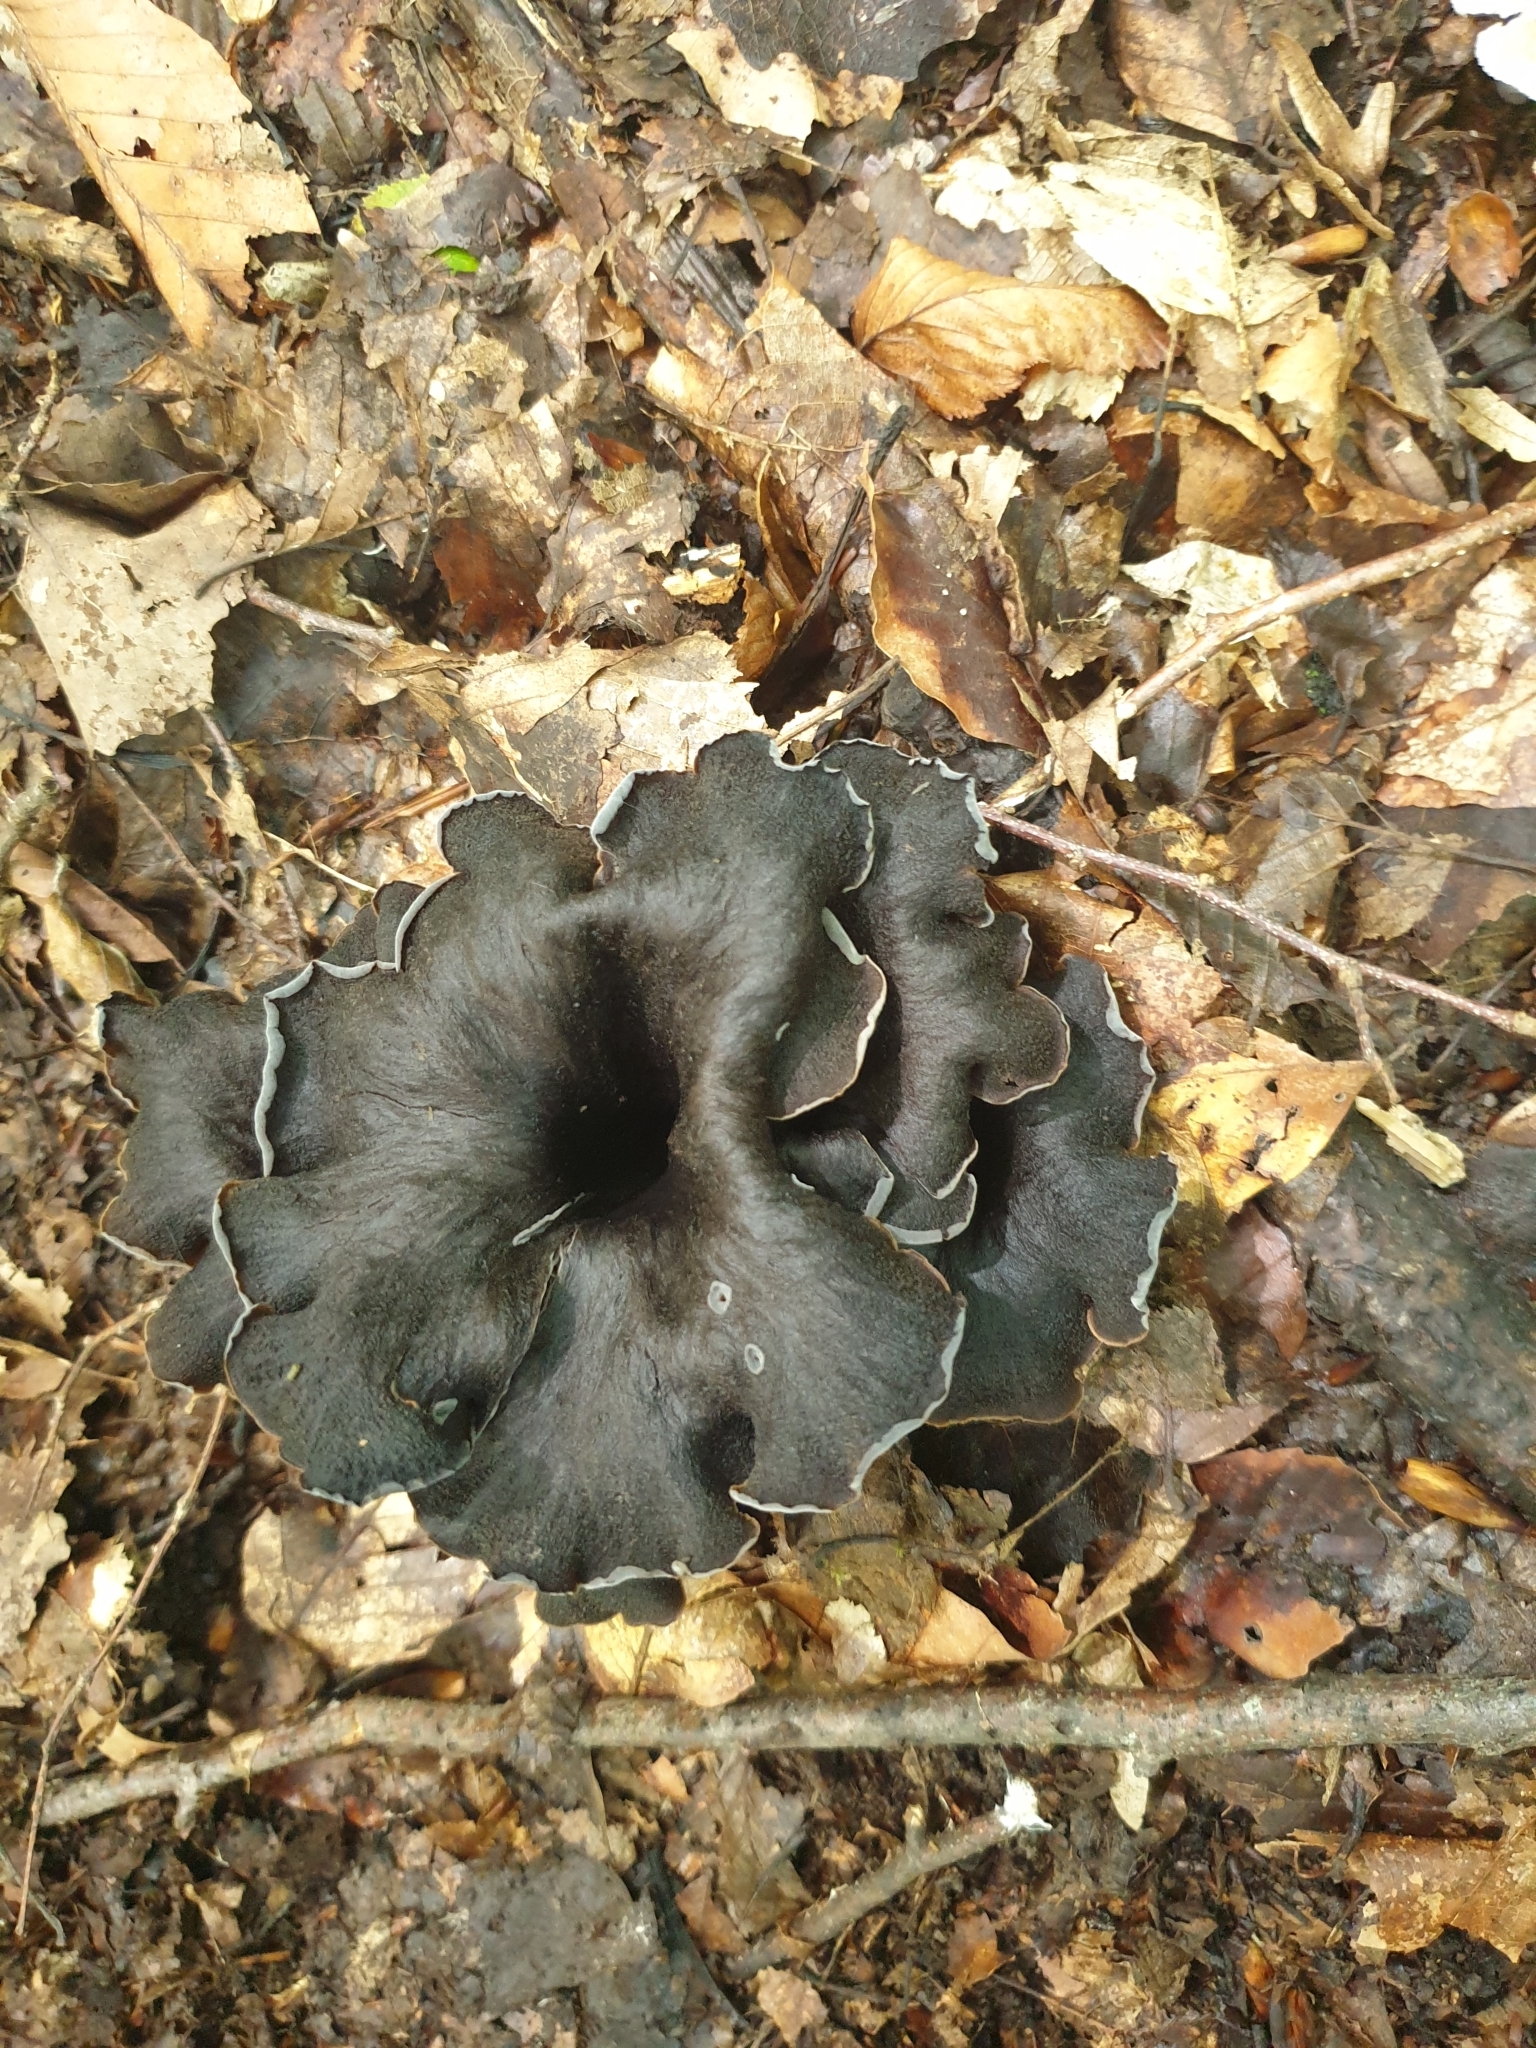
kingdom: Fungi
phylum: Basidiomycota
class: Agaricomycetes
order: Cantharellales
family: Hydnaceae
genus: Craterellus
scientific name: Craterellus cornucopioides
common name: Horn of plenty
